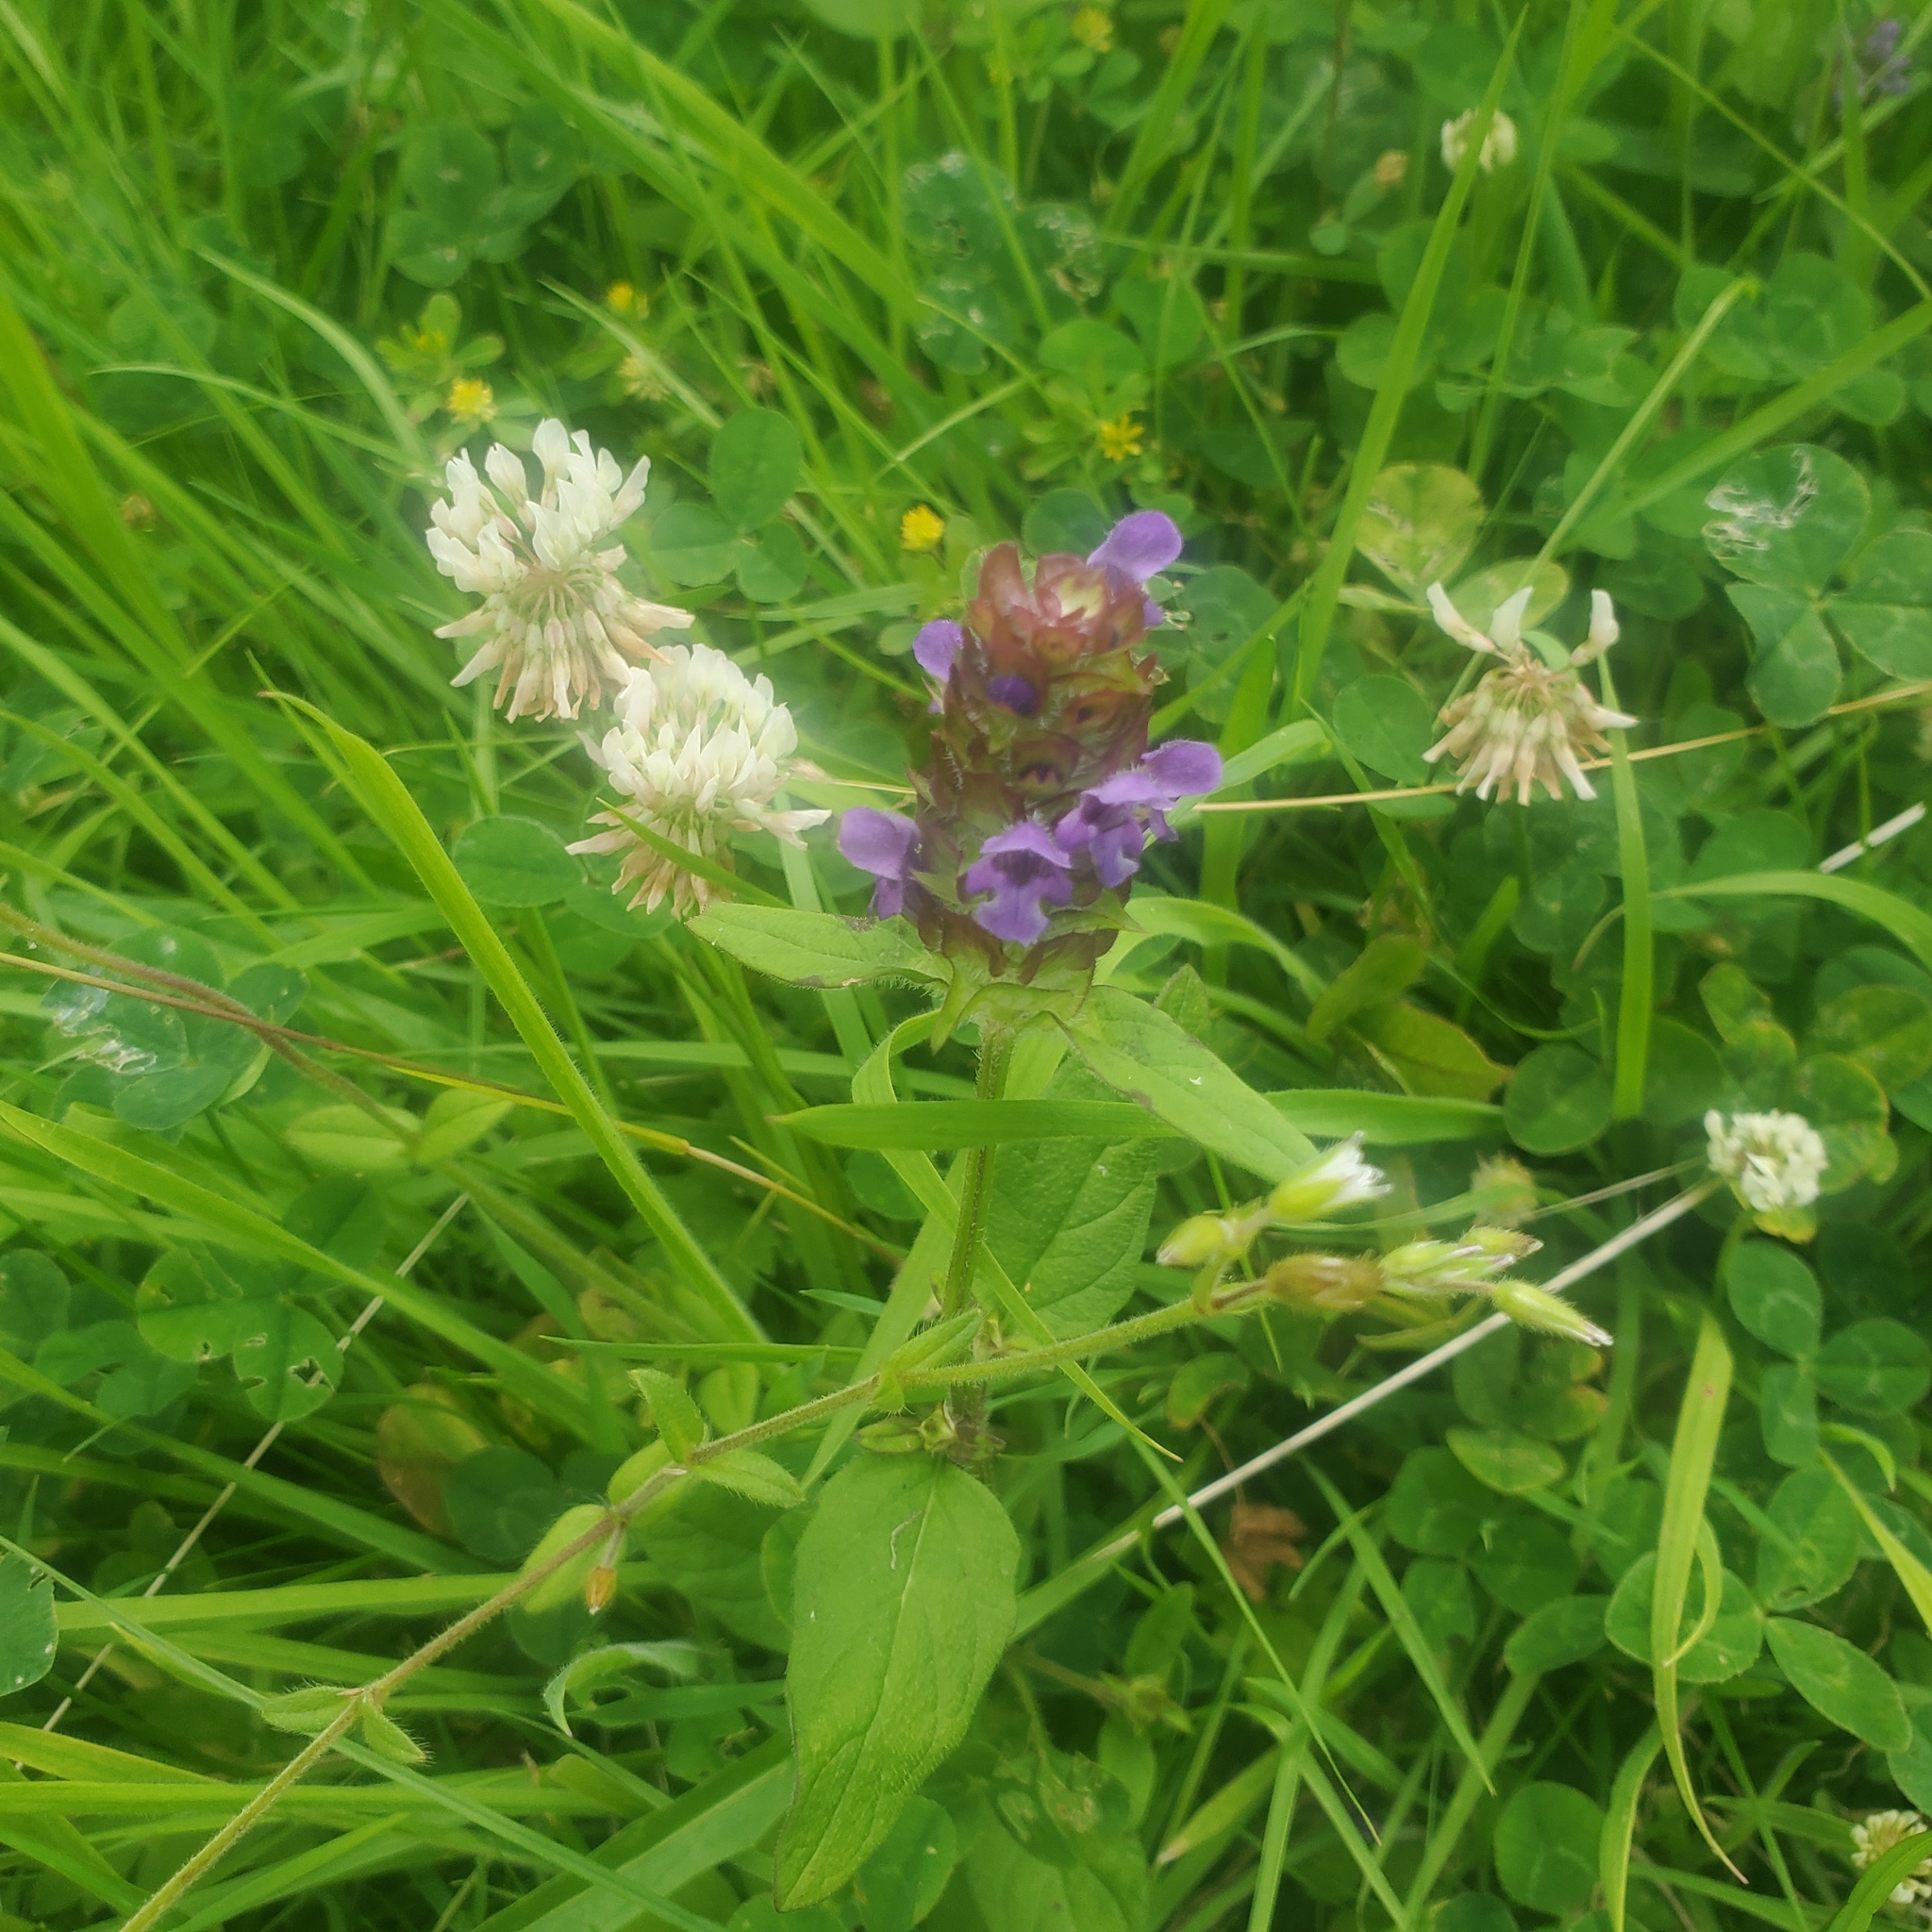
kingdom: Plantae
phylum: Tracheophyta
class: Magnoliopsida
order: Lamiales
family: Lamiaceae
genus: Prunella
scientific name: Prunella vulgaris
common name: Heal-all
